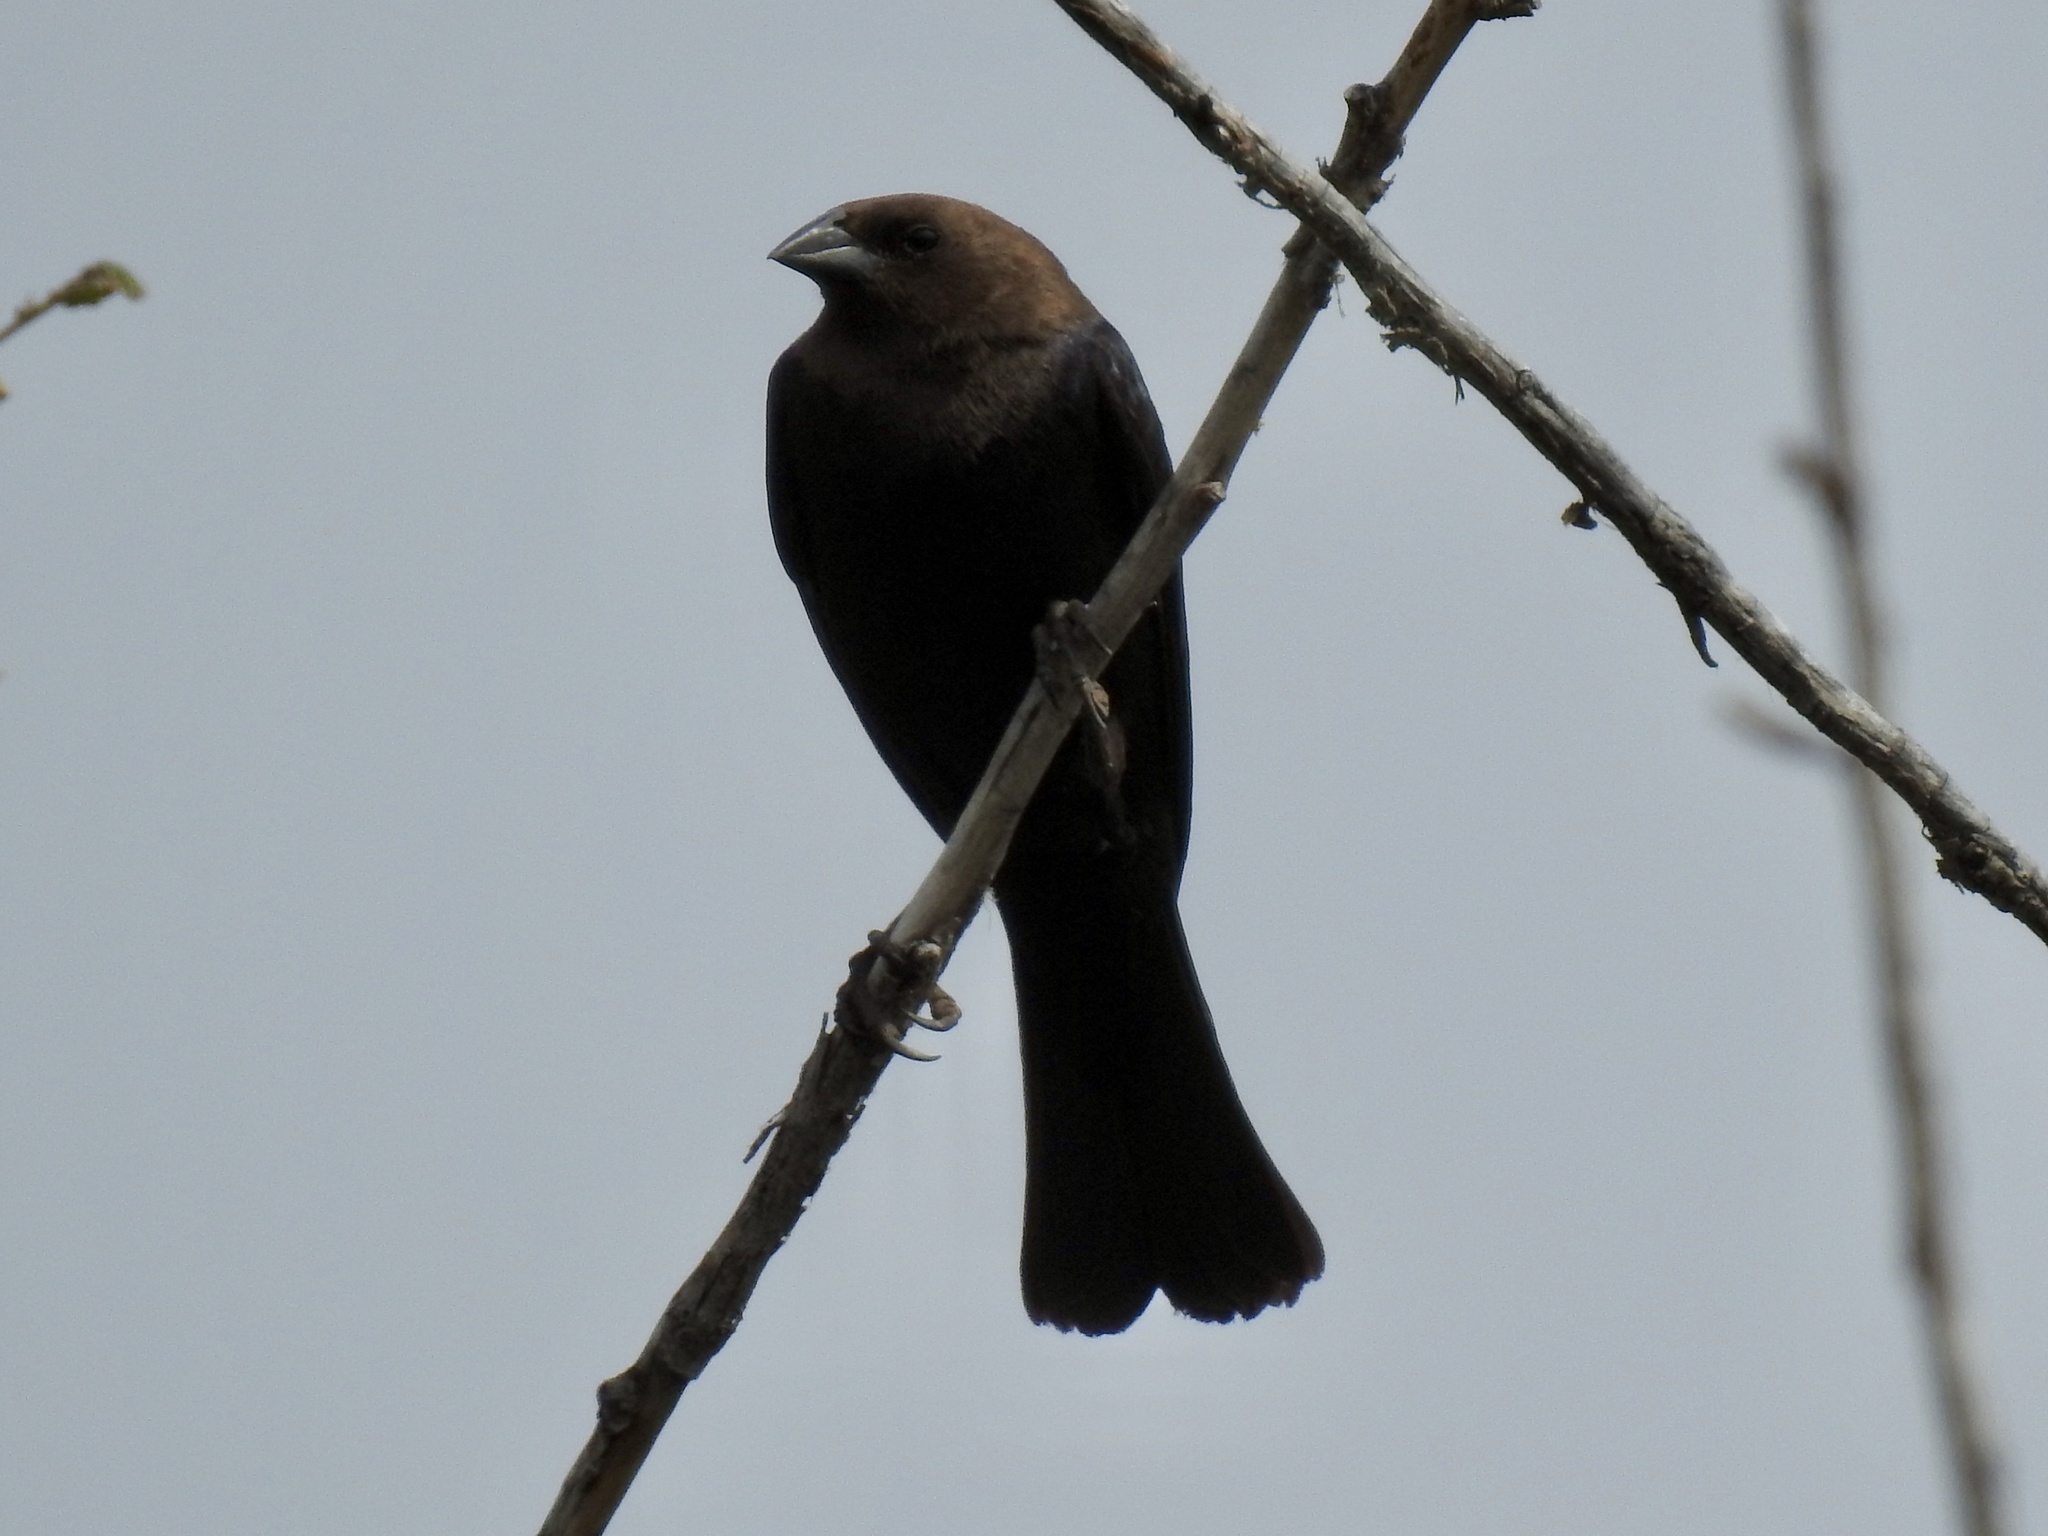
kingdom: Animalia
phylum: Chordata
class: Aves
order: Passeriformes
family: Icteridae
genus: Molothrus
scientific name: Molothrus ater
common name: Brown-headed cowbird
